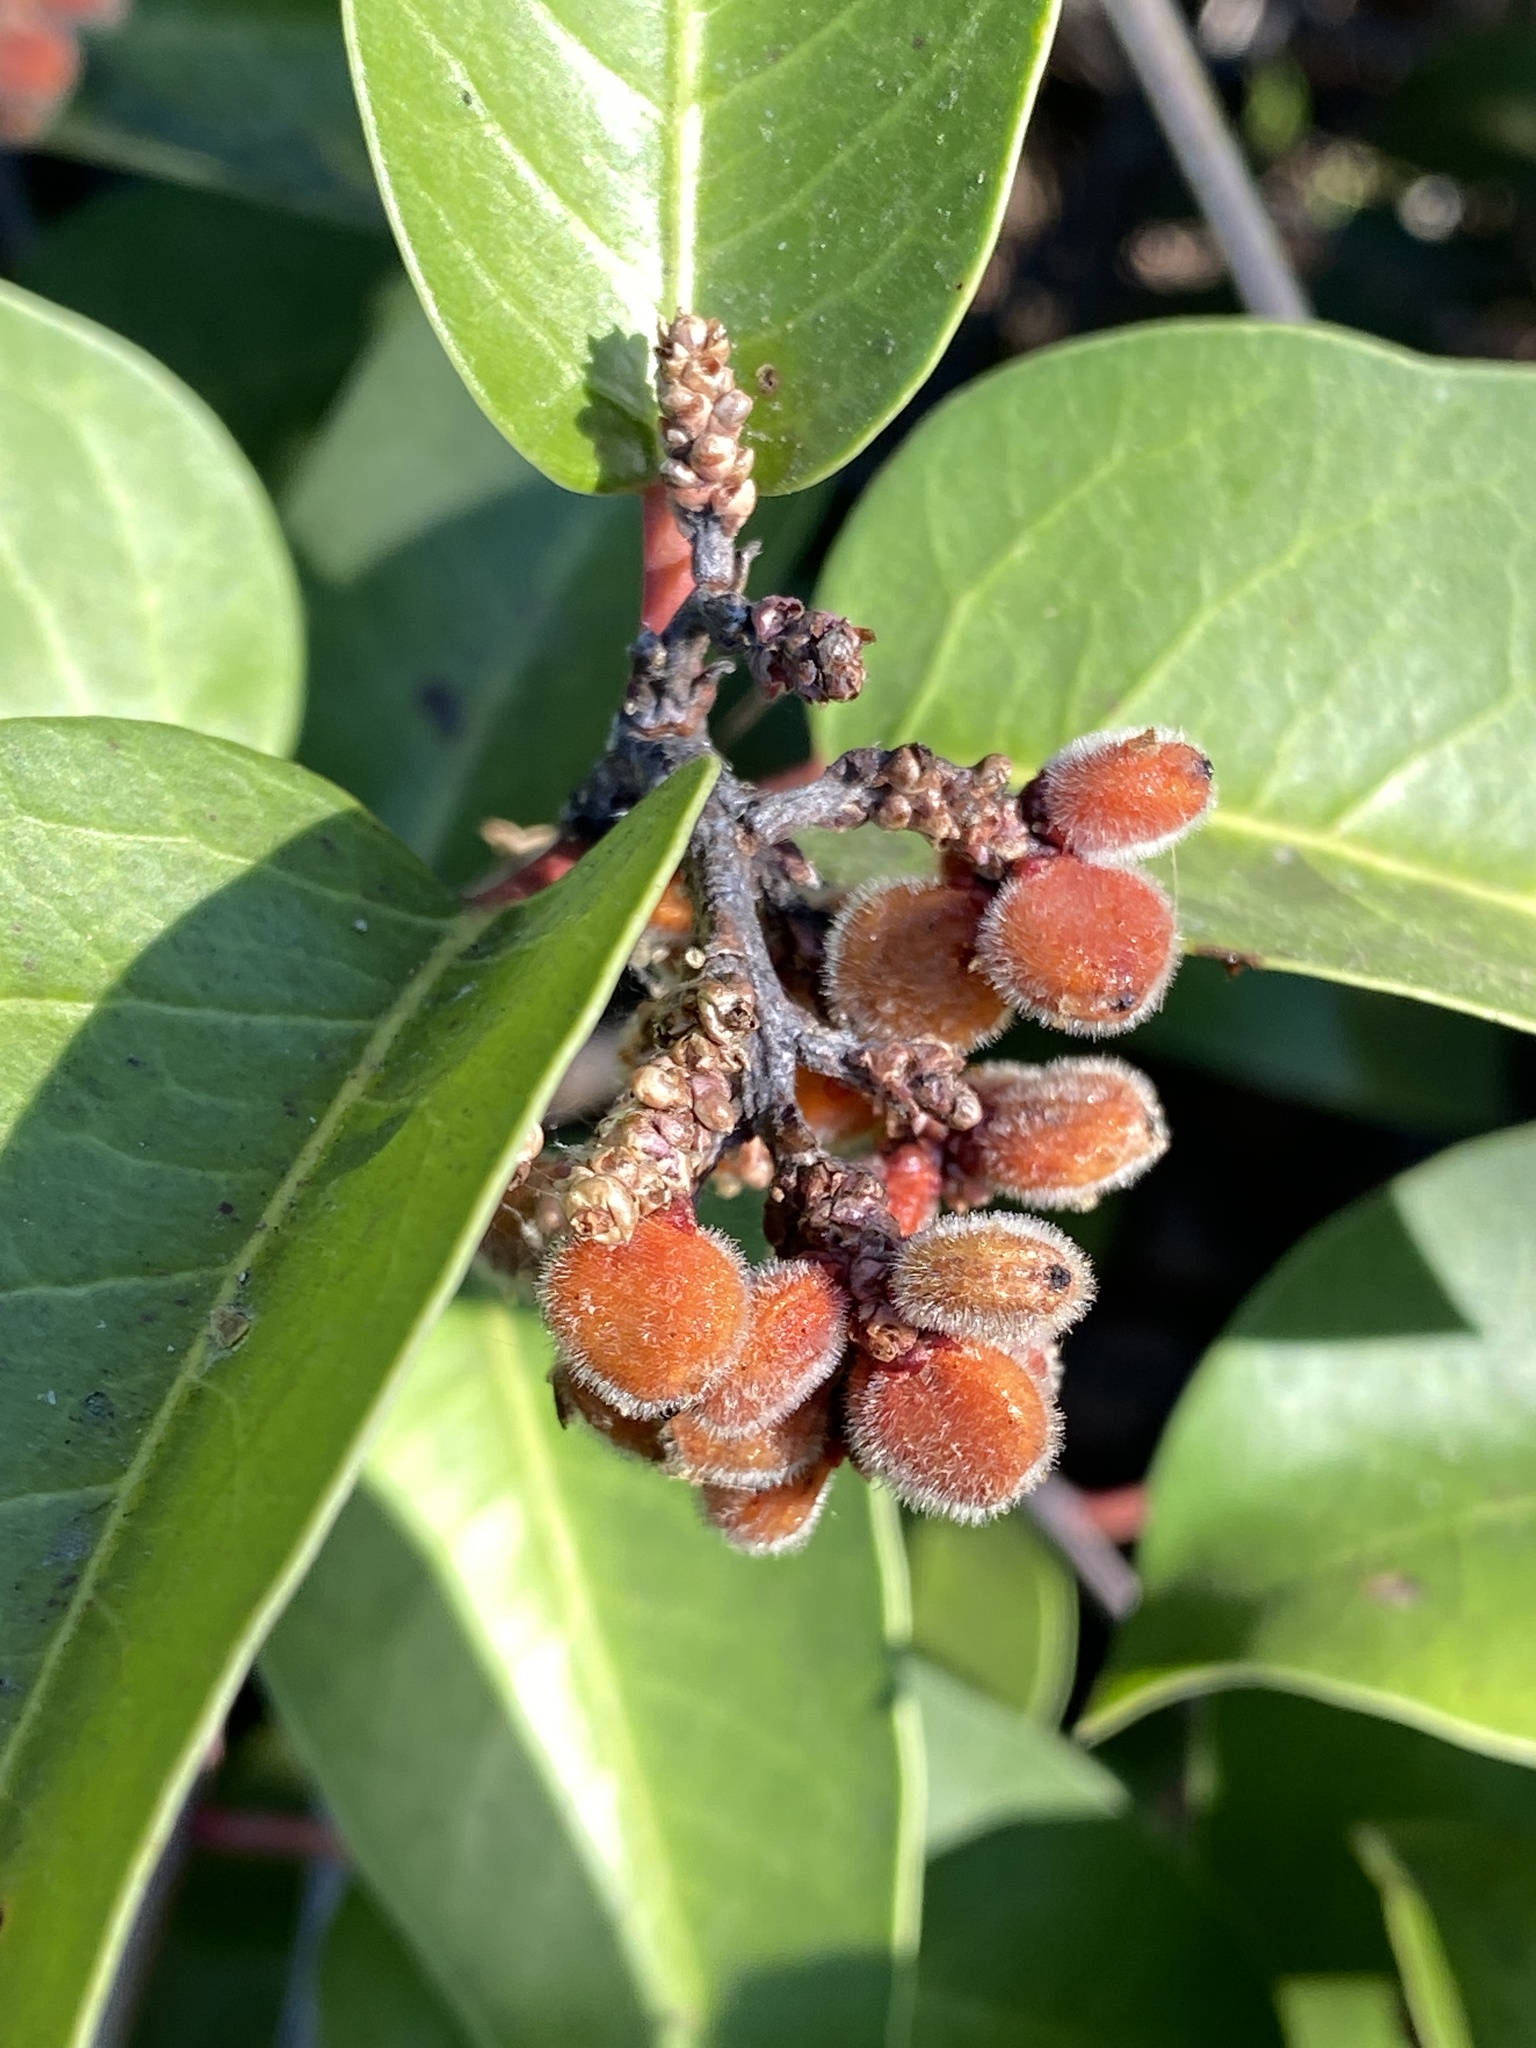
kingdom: Plantae
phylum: Tracheophyta
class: Magnoliopsida
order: Sapindales
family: Anacardiaceae
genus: Rhus
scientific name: Rhus ovata
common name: Sugar sumac
